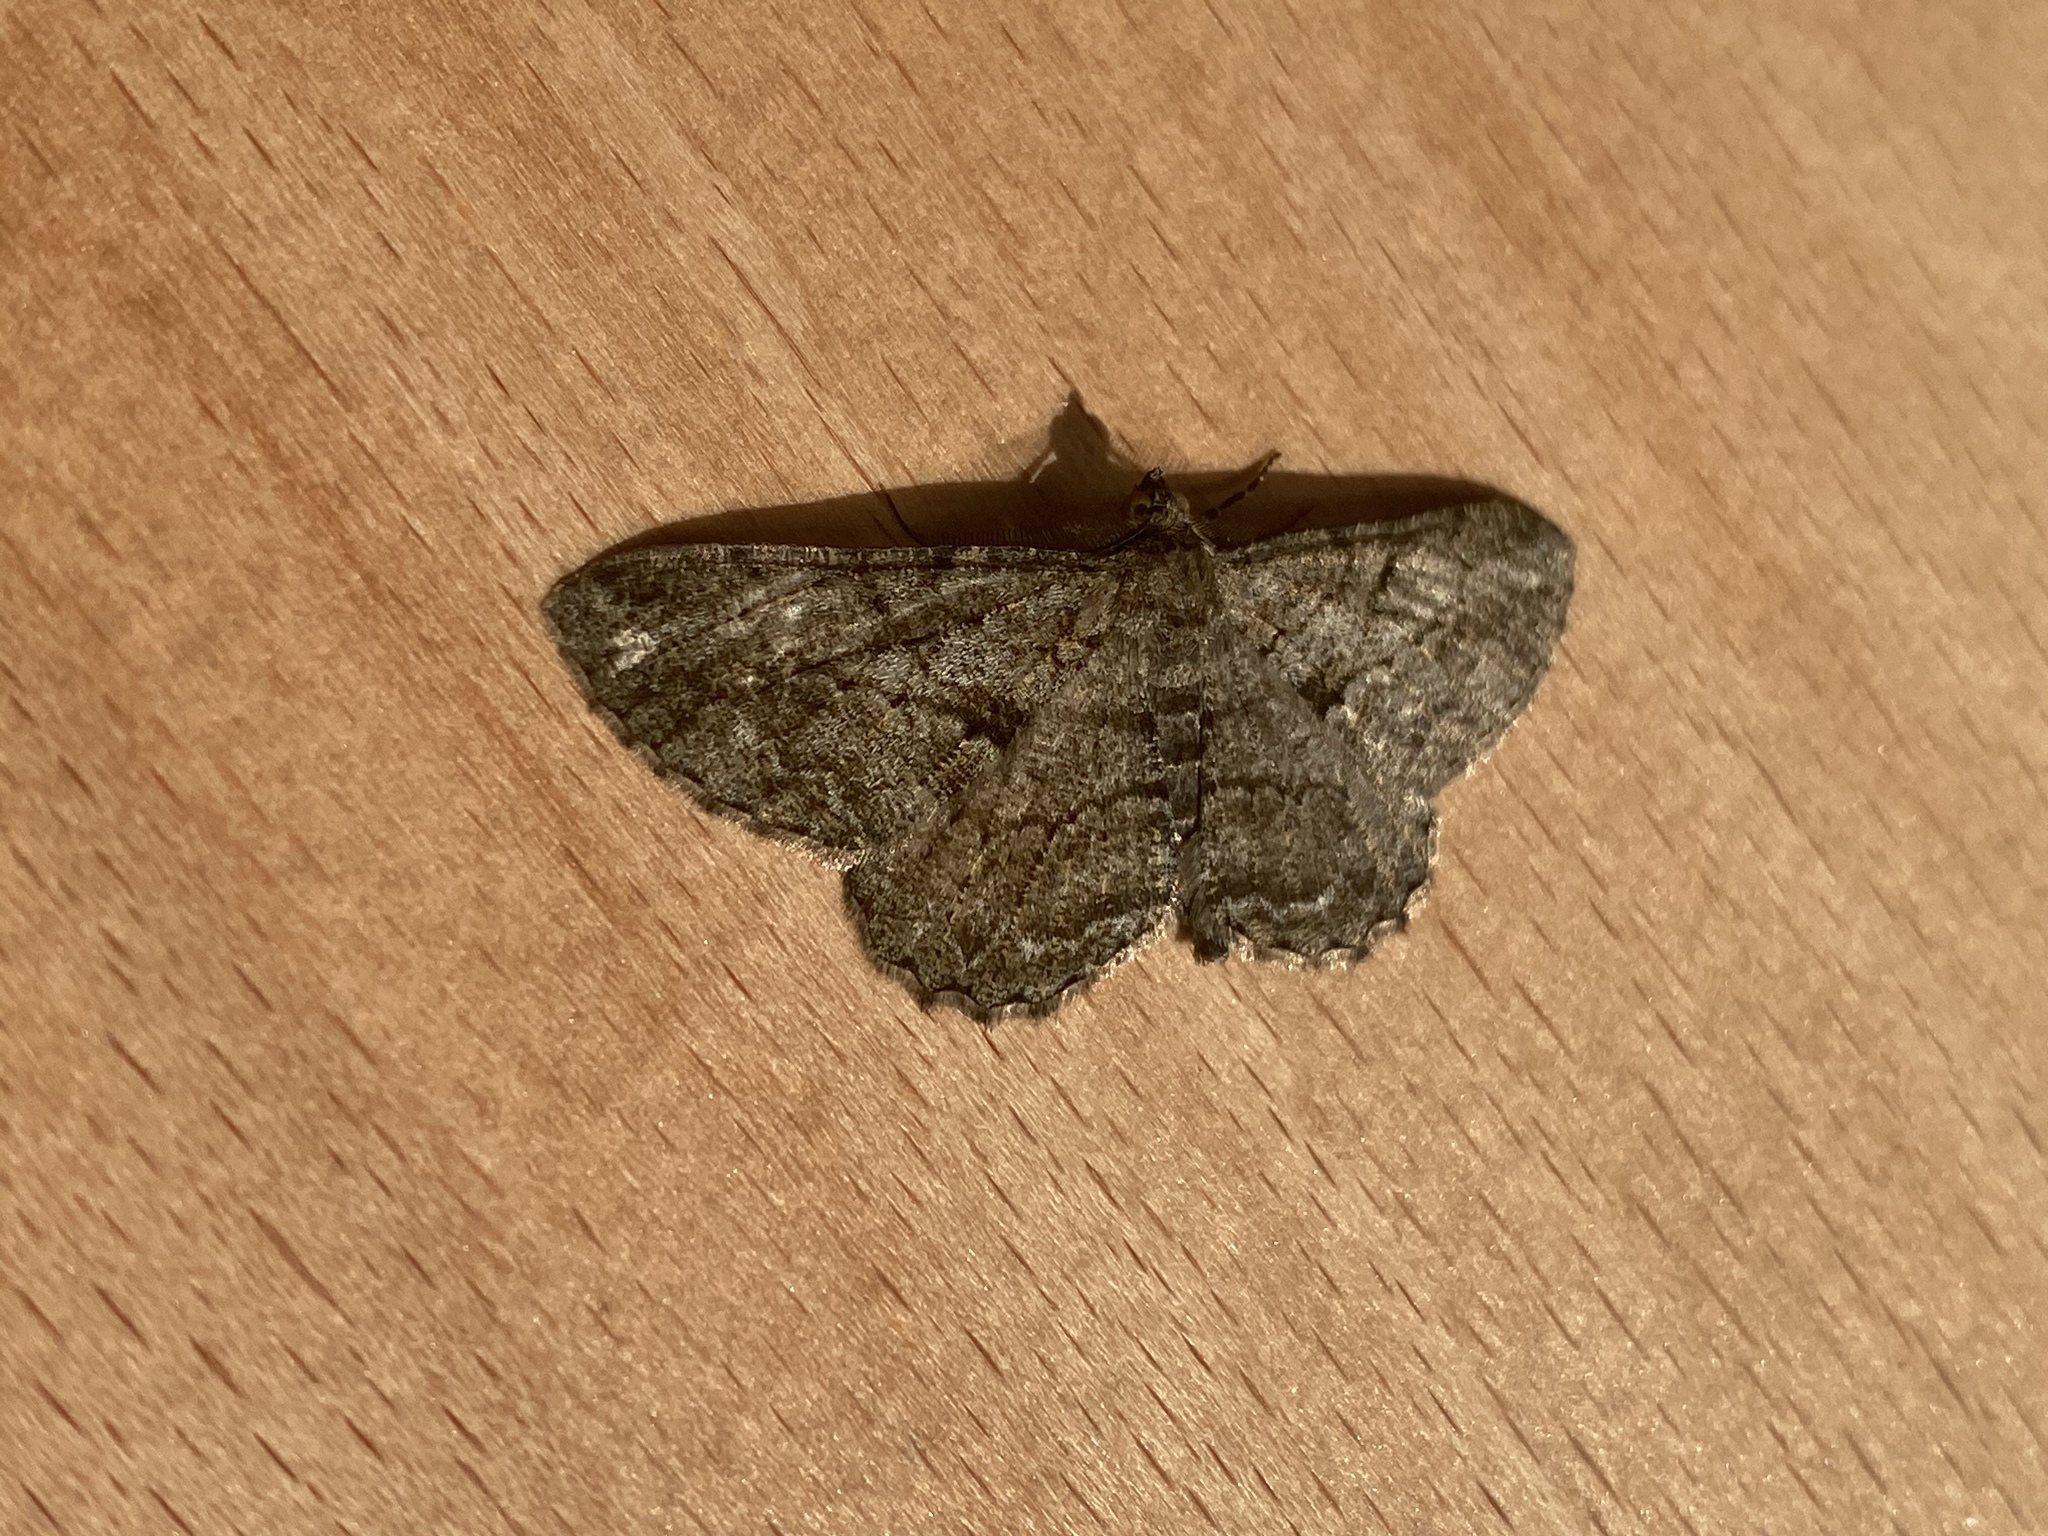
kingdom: Animalia
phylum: Arthropoda
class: Insecta
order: Lepidoptera
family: Geometridae
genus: Peribatodes
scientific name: Peribatodes rhomboidaria
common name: Willow beauty
